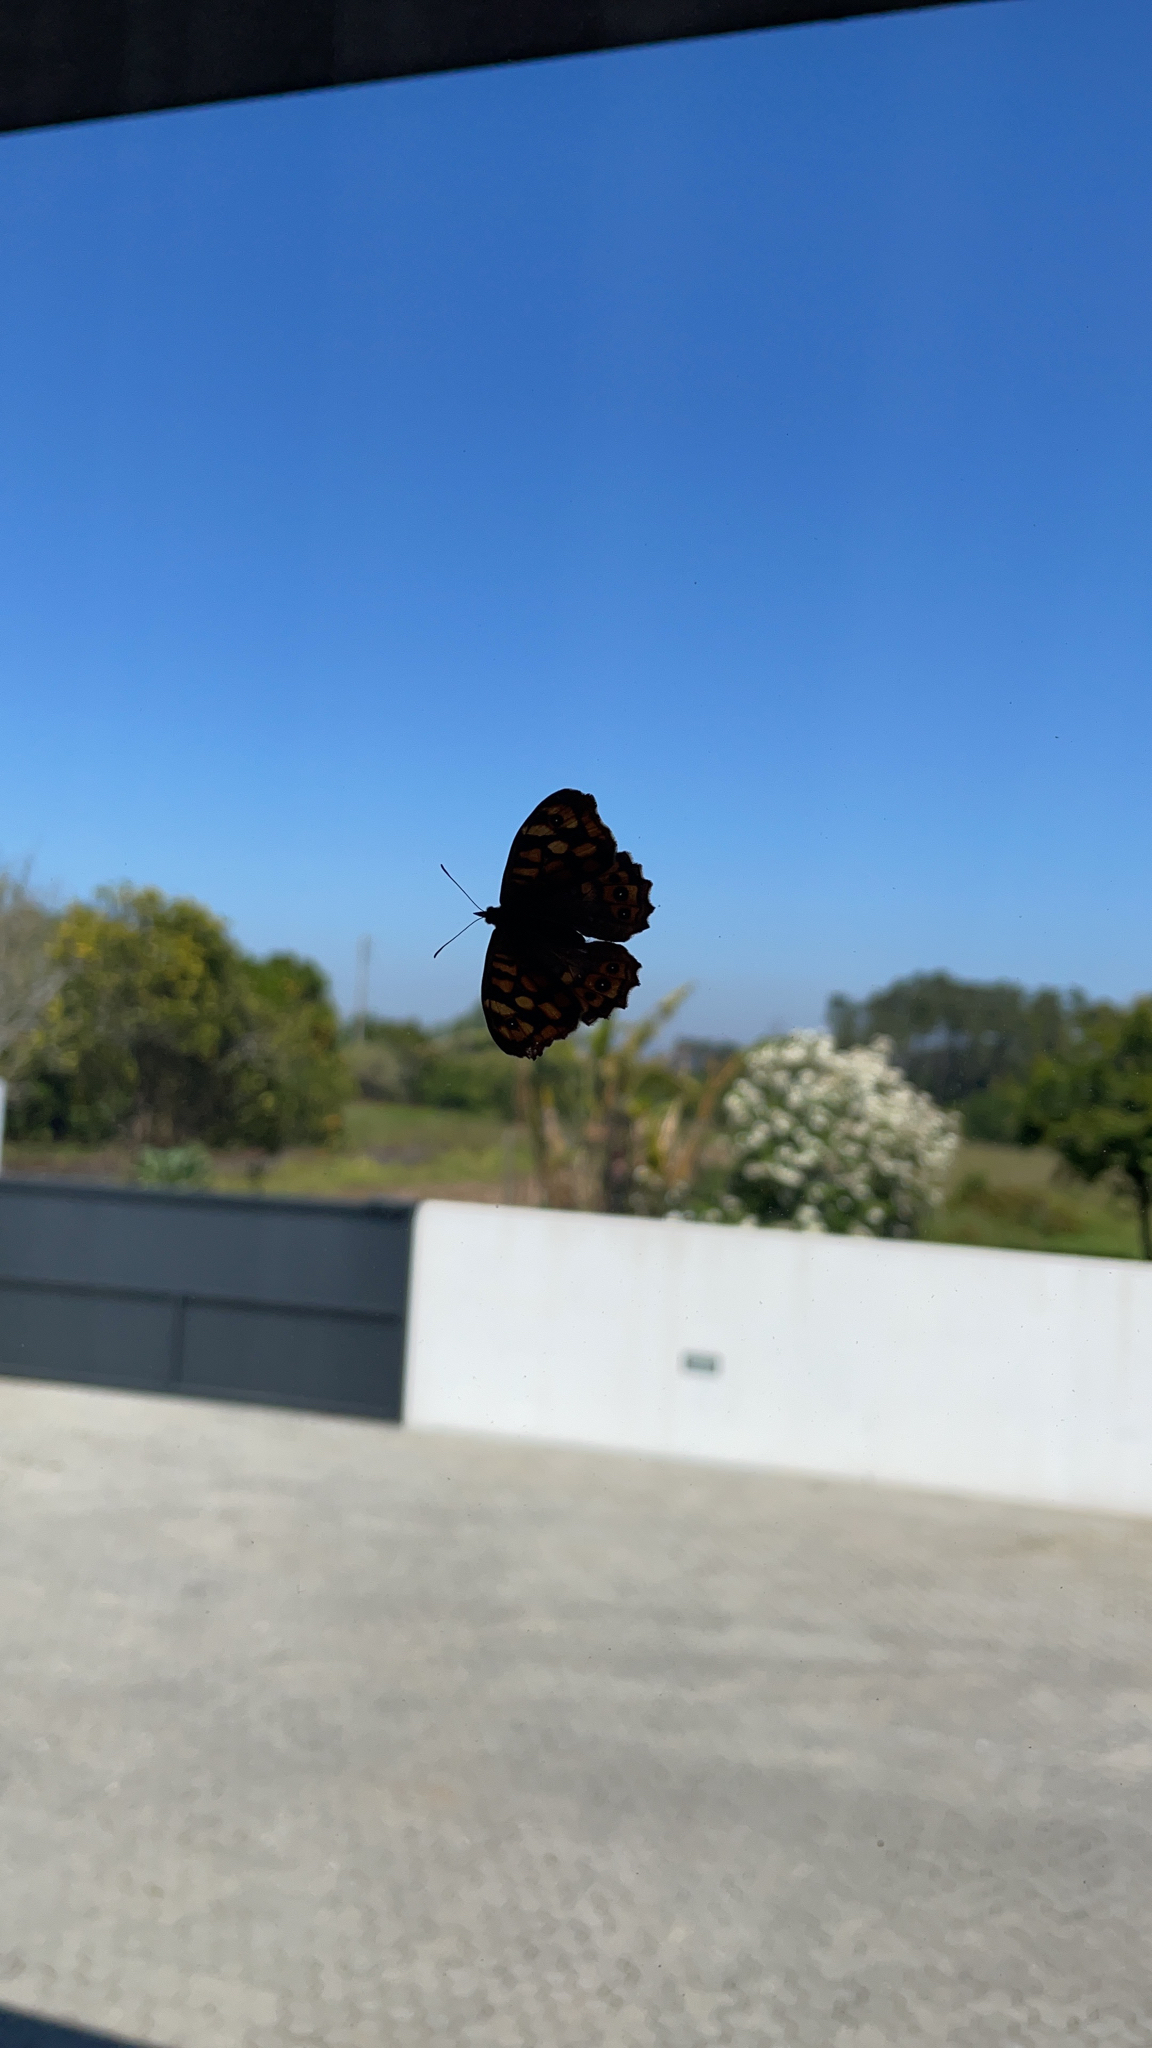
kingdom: Animalia
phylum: Arthropoda
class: Insecta
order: Lepidoptera
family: Nymphalidae
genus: Pararge
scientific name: Pararge aegeria
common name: Speckled wood
